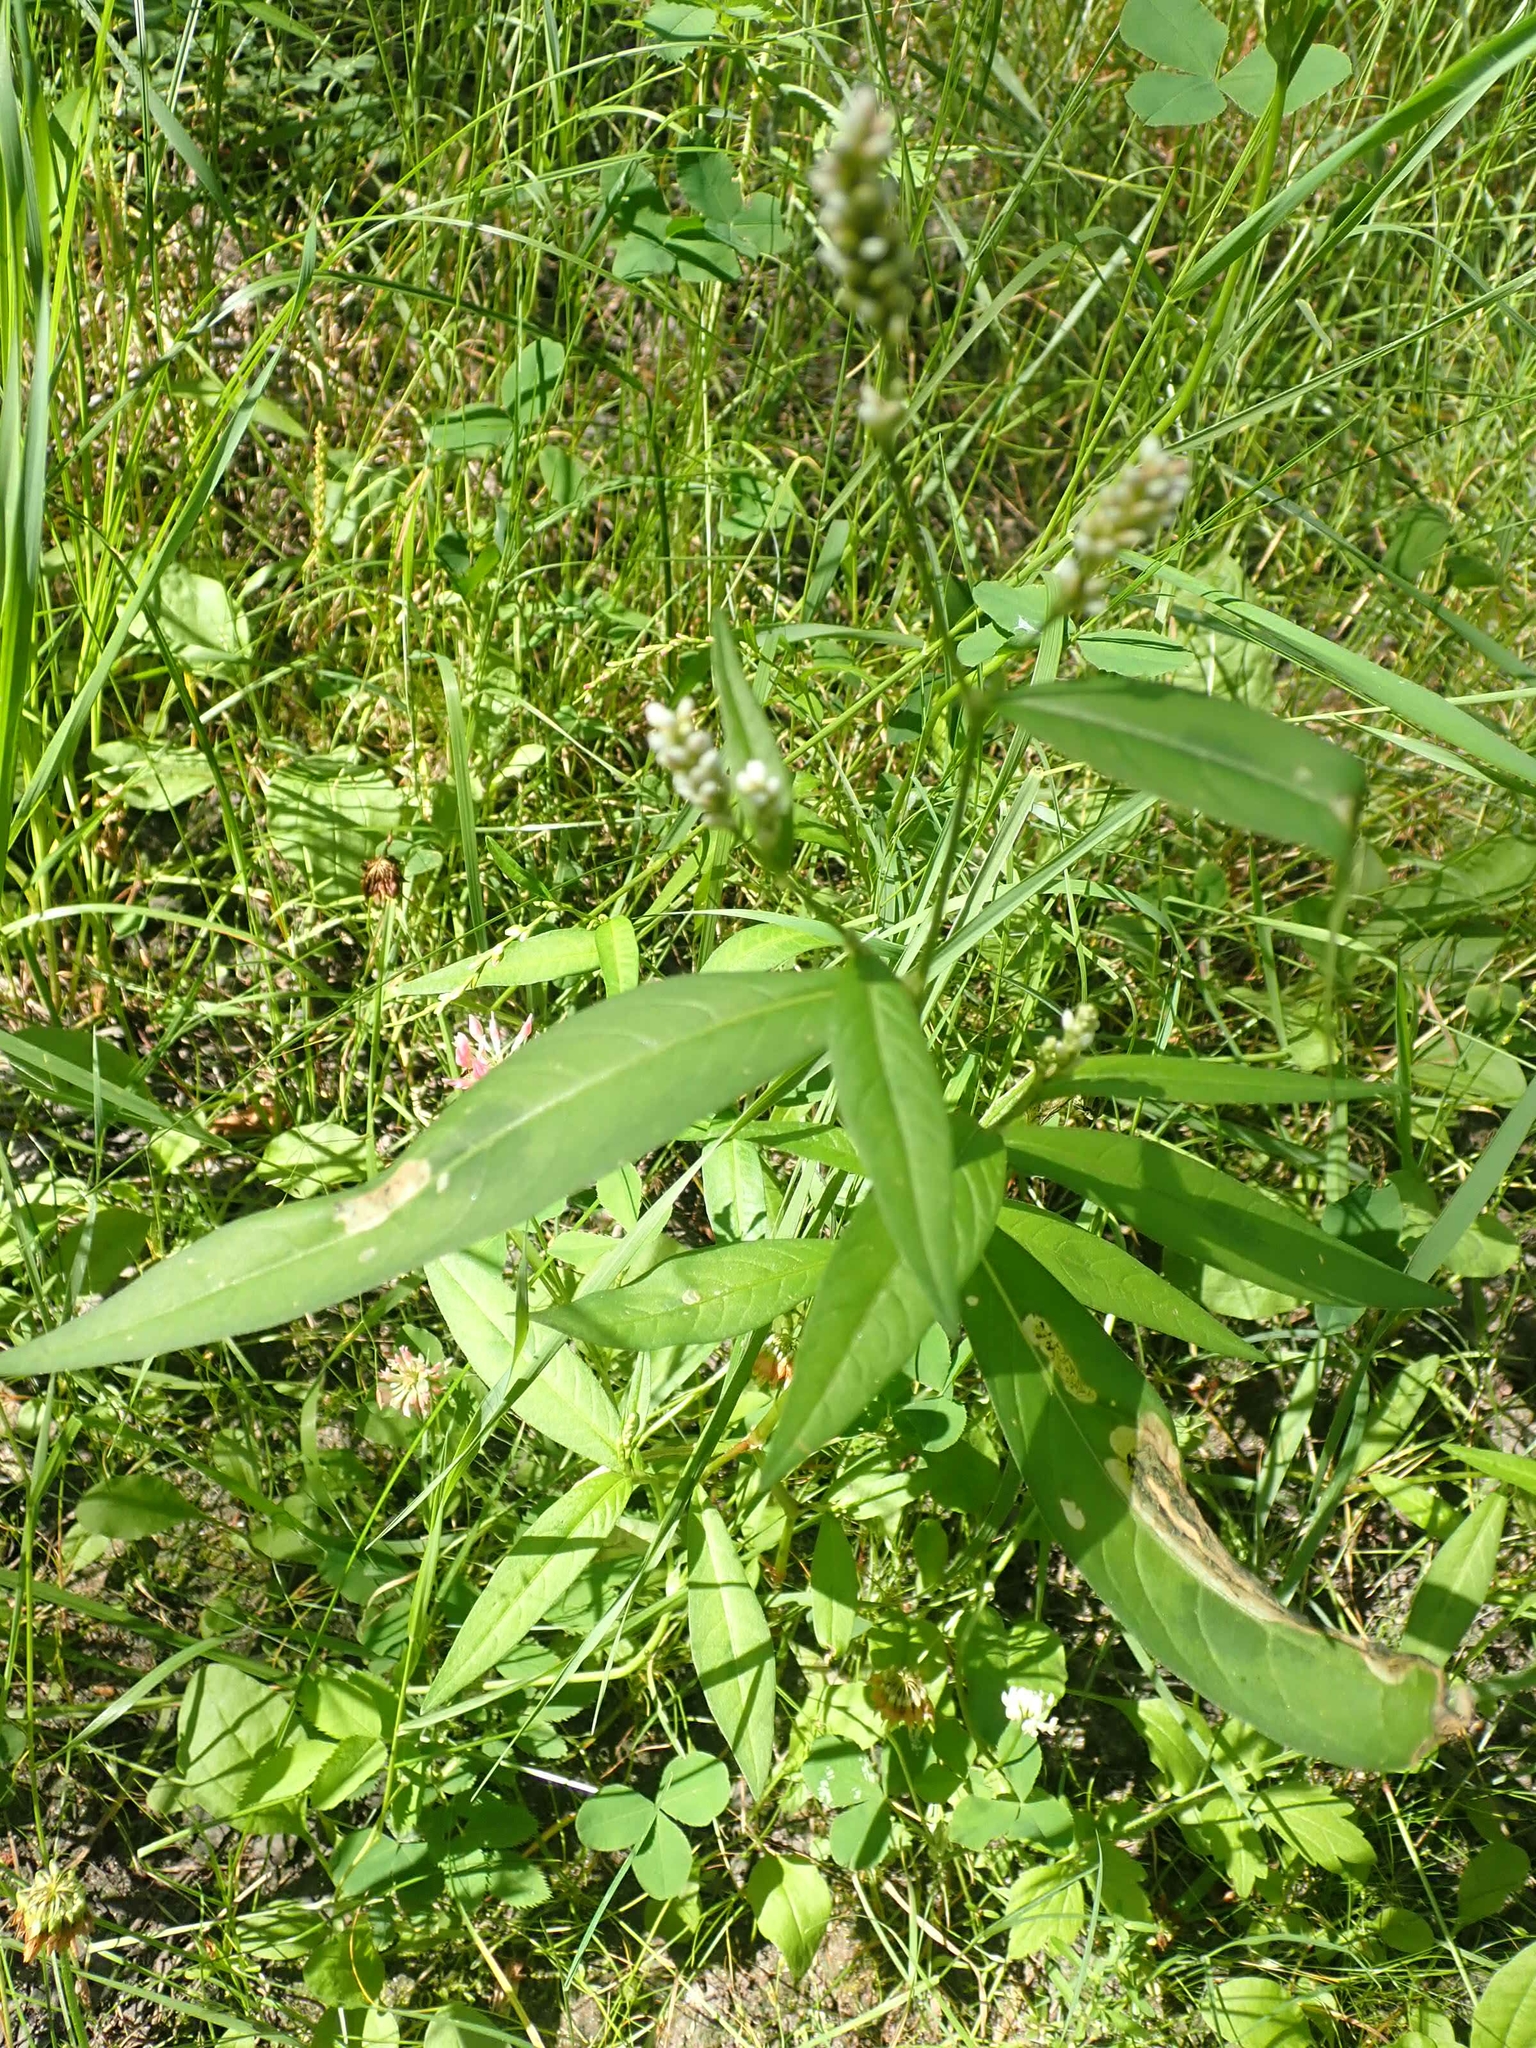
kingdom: Plantae
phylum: Tracheophyta
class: Magnoliopsida
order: Caryophyllales
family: Polygonaceae
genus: Persicaria
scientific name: Persicaria lapathifolia
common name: Curlytop knotweed
